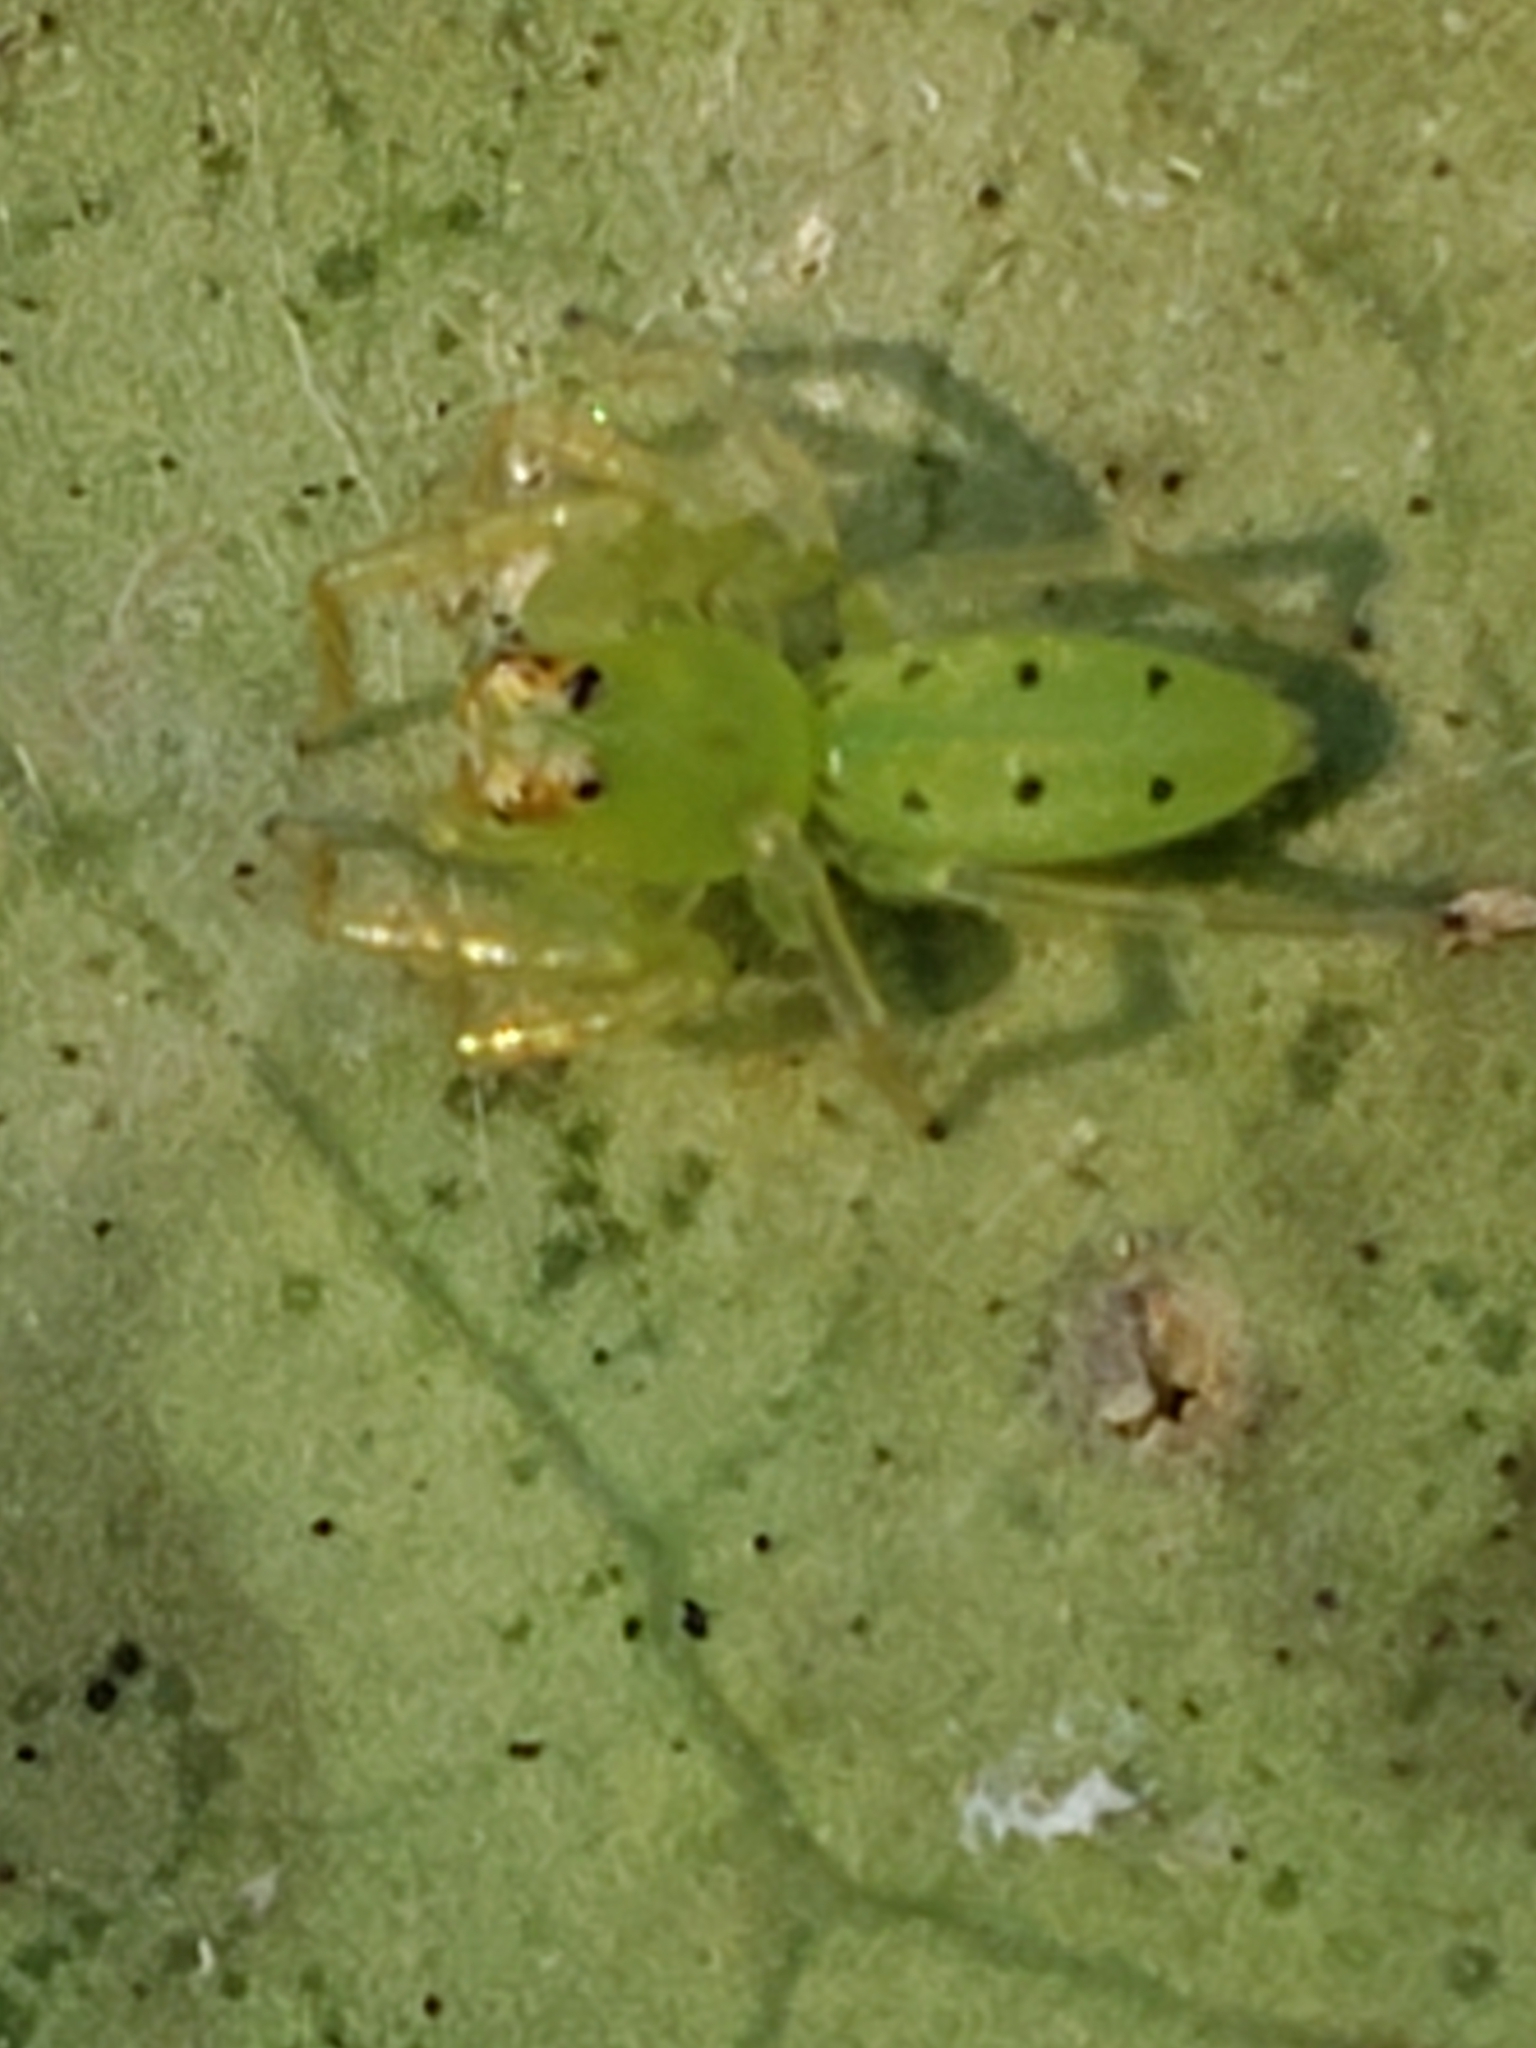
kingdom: Animalia
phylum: Arthropoda
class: Arachnida
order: Araneae
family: Salticidae
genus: Lyssomanes
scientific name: Lyssomanes viridis
